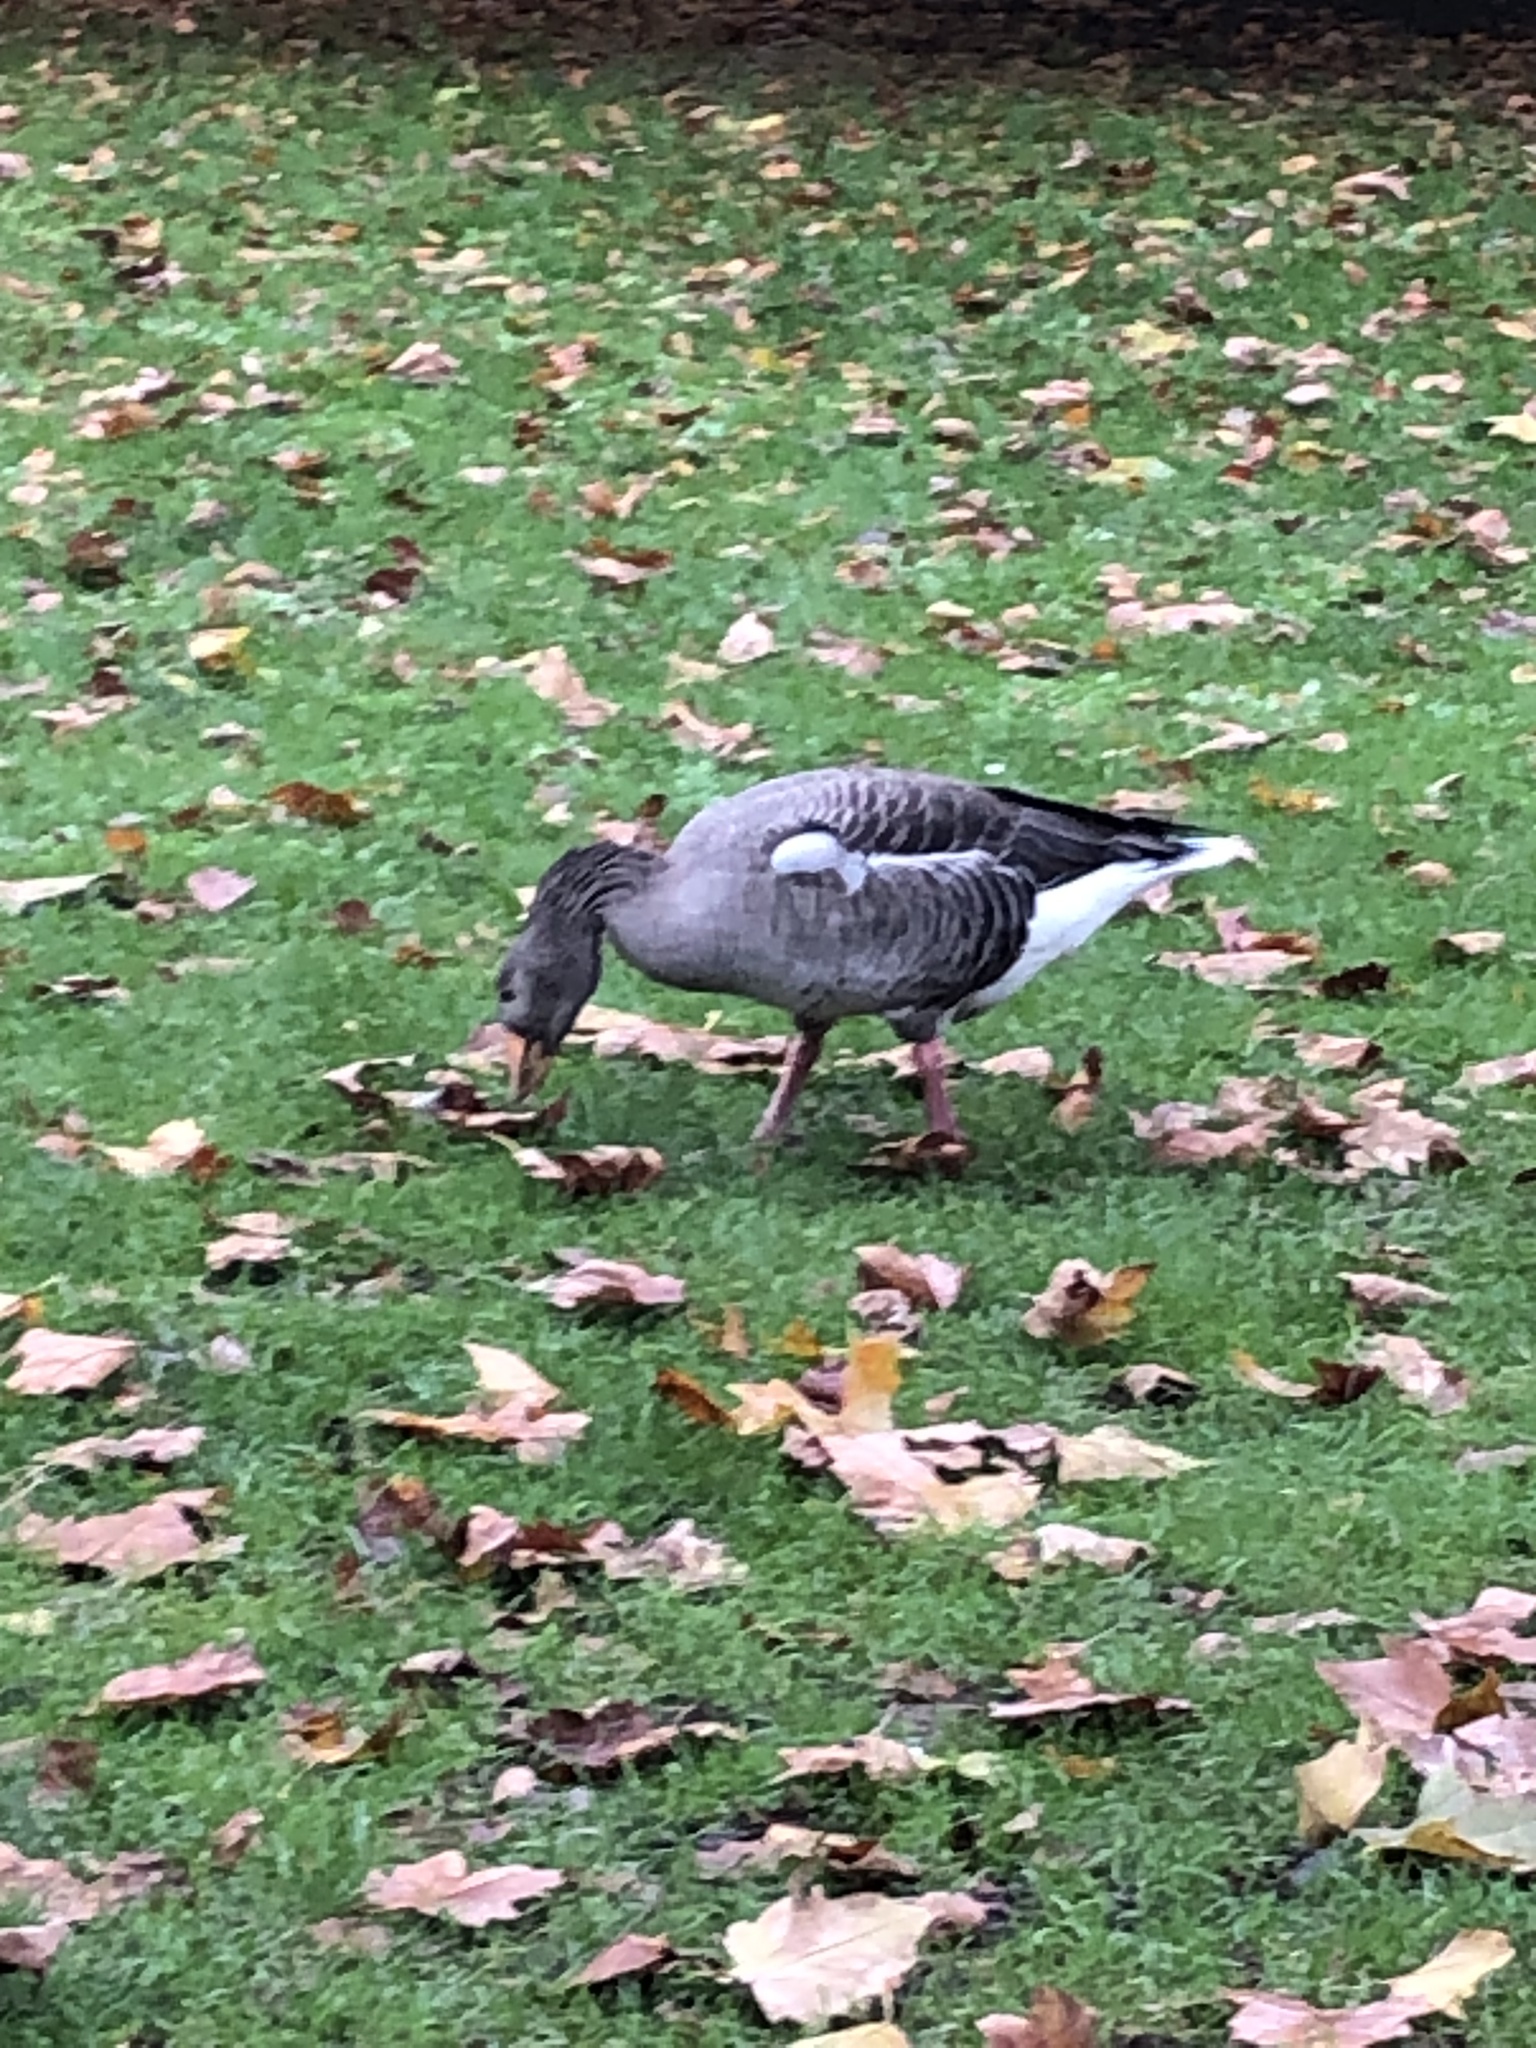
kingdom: Animalia
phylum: Chordata
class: Aves
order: Anseriformes
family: Anatidae
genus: Anser
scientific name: Anser anser
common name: Greylag goose
